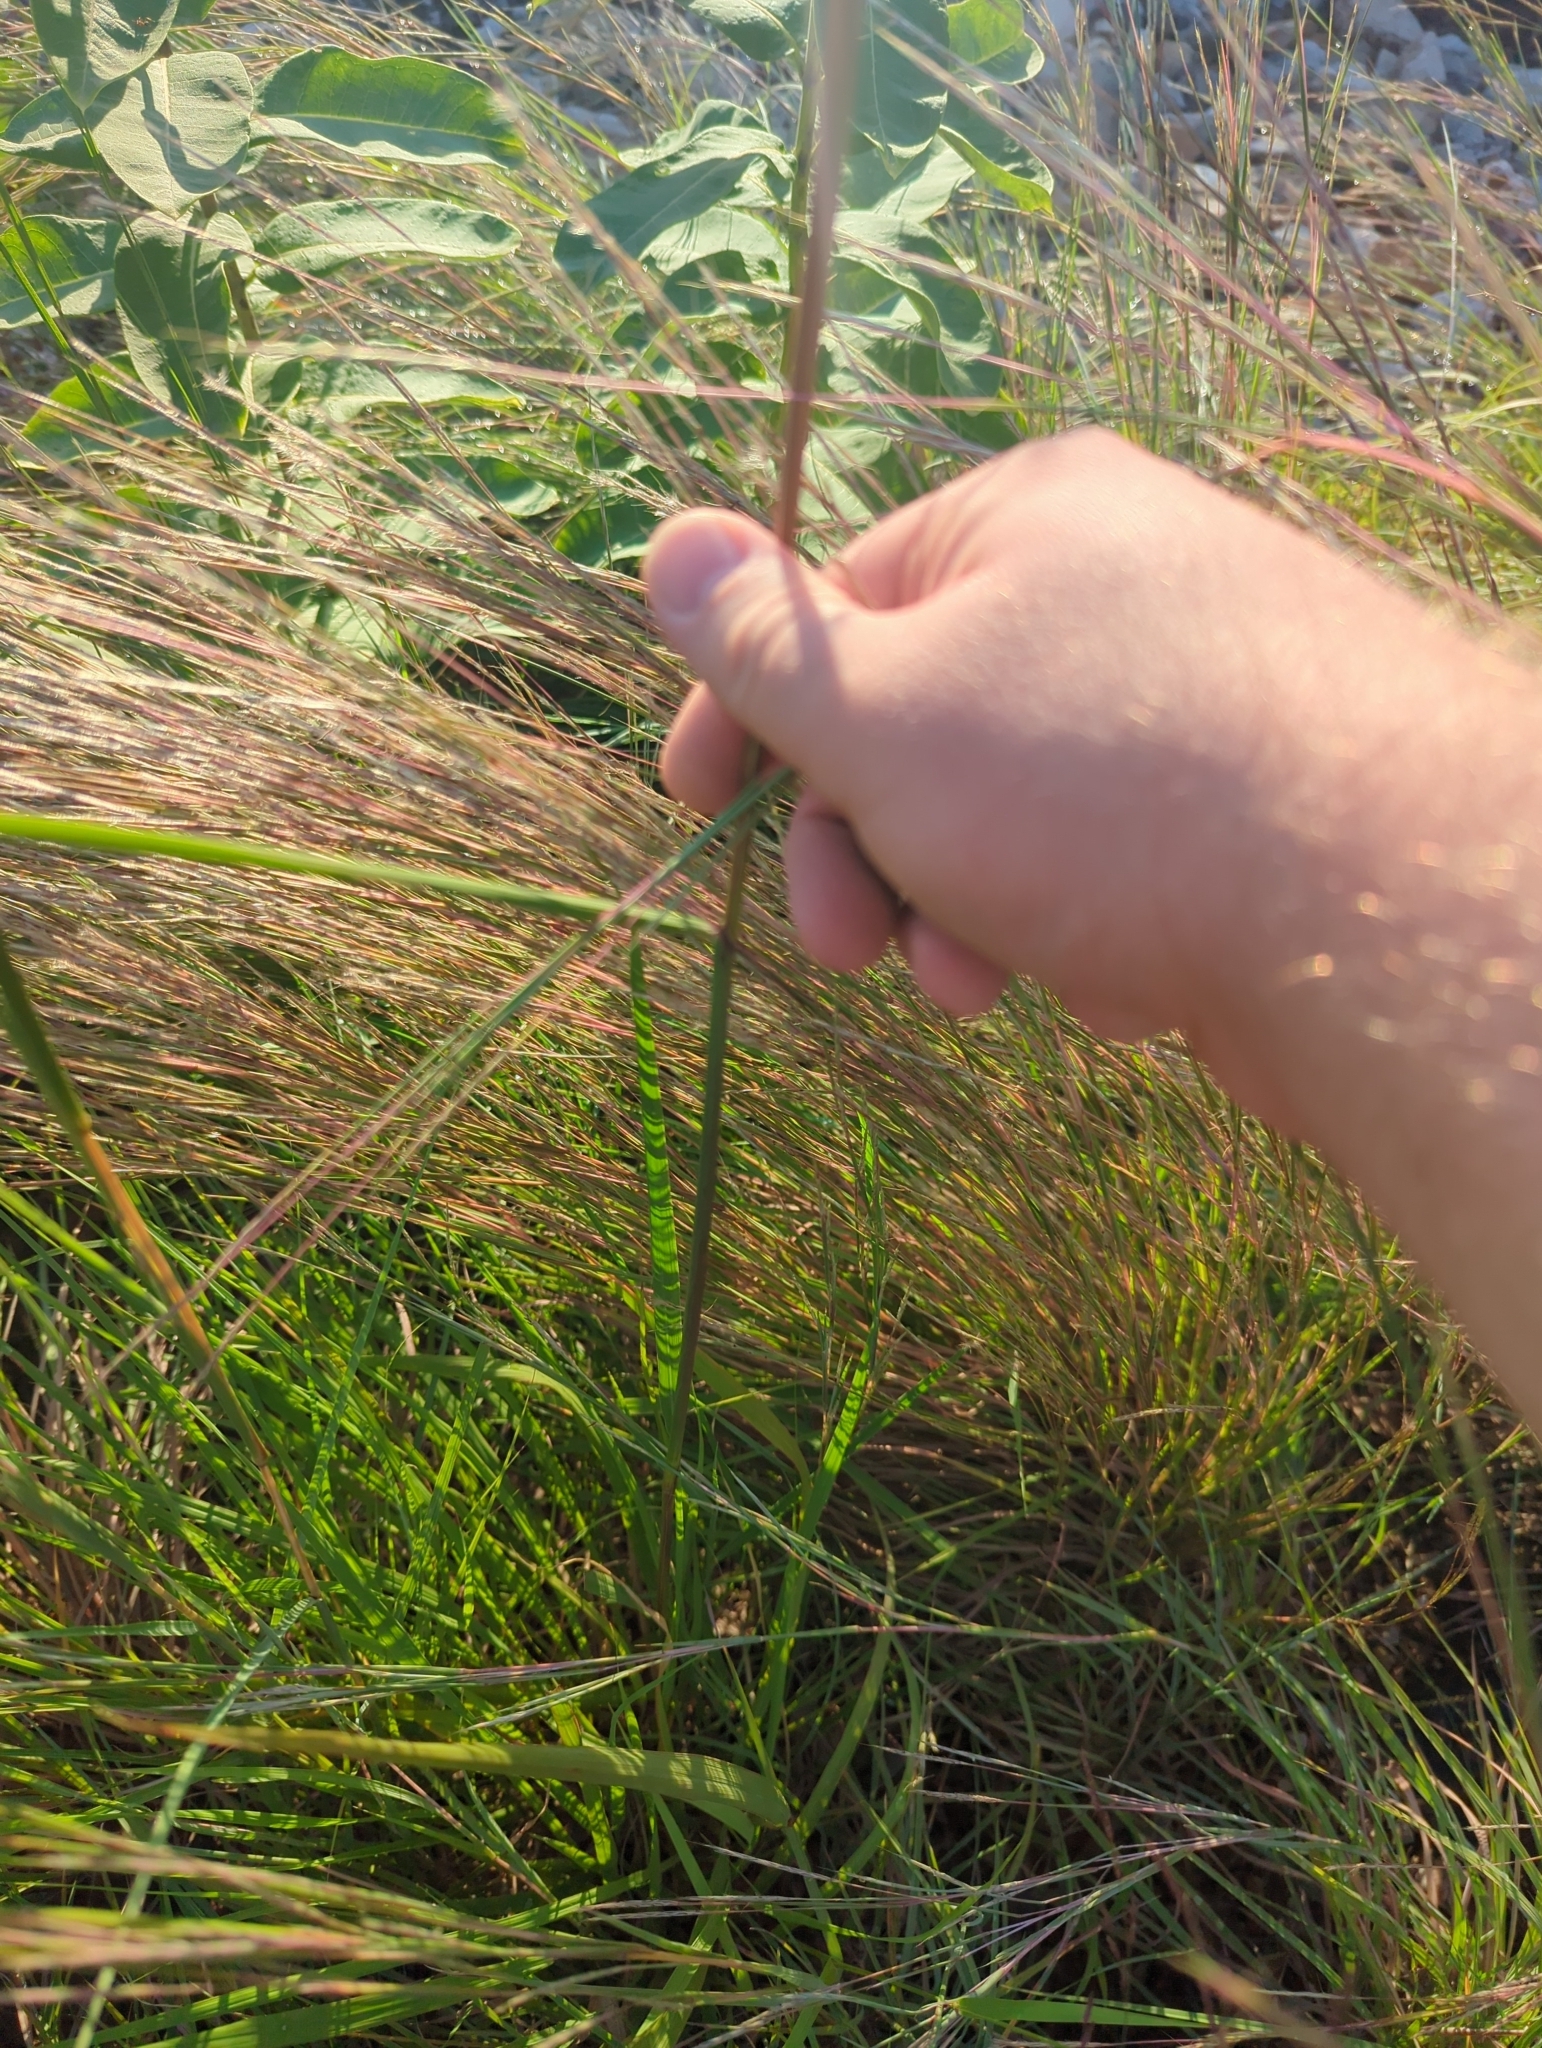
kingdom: Plantae
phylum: Tracheophyta
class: Liliopsida
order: Poales
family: Poaceae
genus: Sorghastrum
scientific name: Sorghastrum nutans
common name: Indian grass
